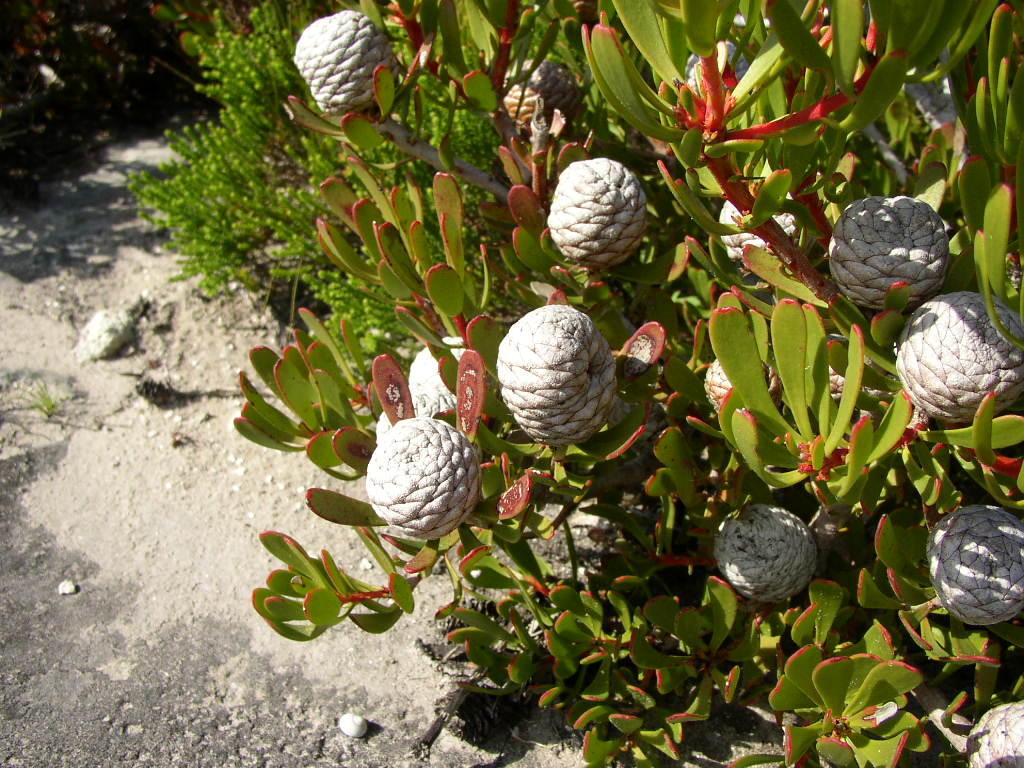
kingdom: Plantae
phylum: Tracheophyta
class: Magnoliopsida
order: Proteales
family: Proteaceae
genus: Leucadendron
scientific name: Leucadendron muirii
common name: Silver-ball conebush
